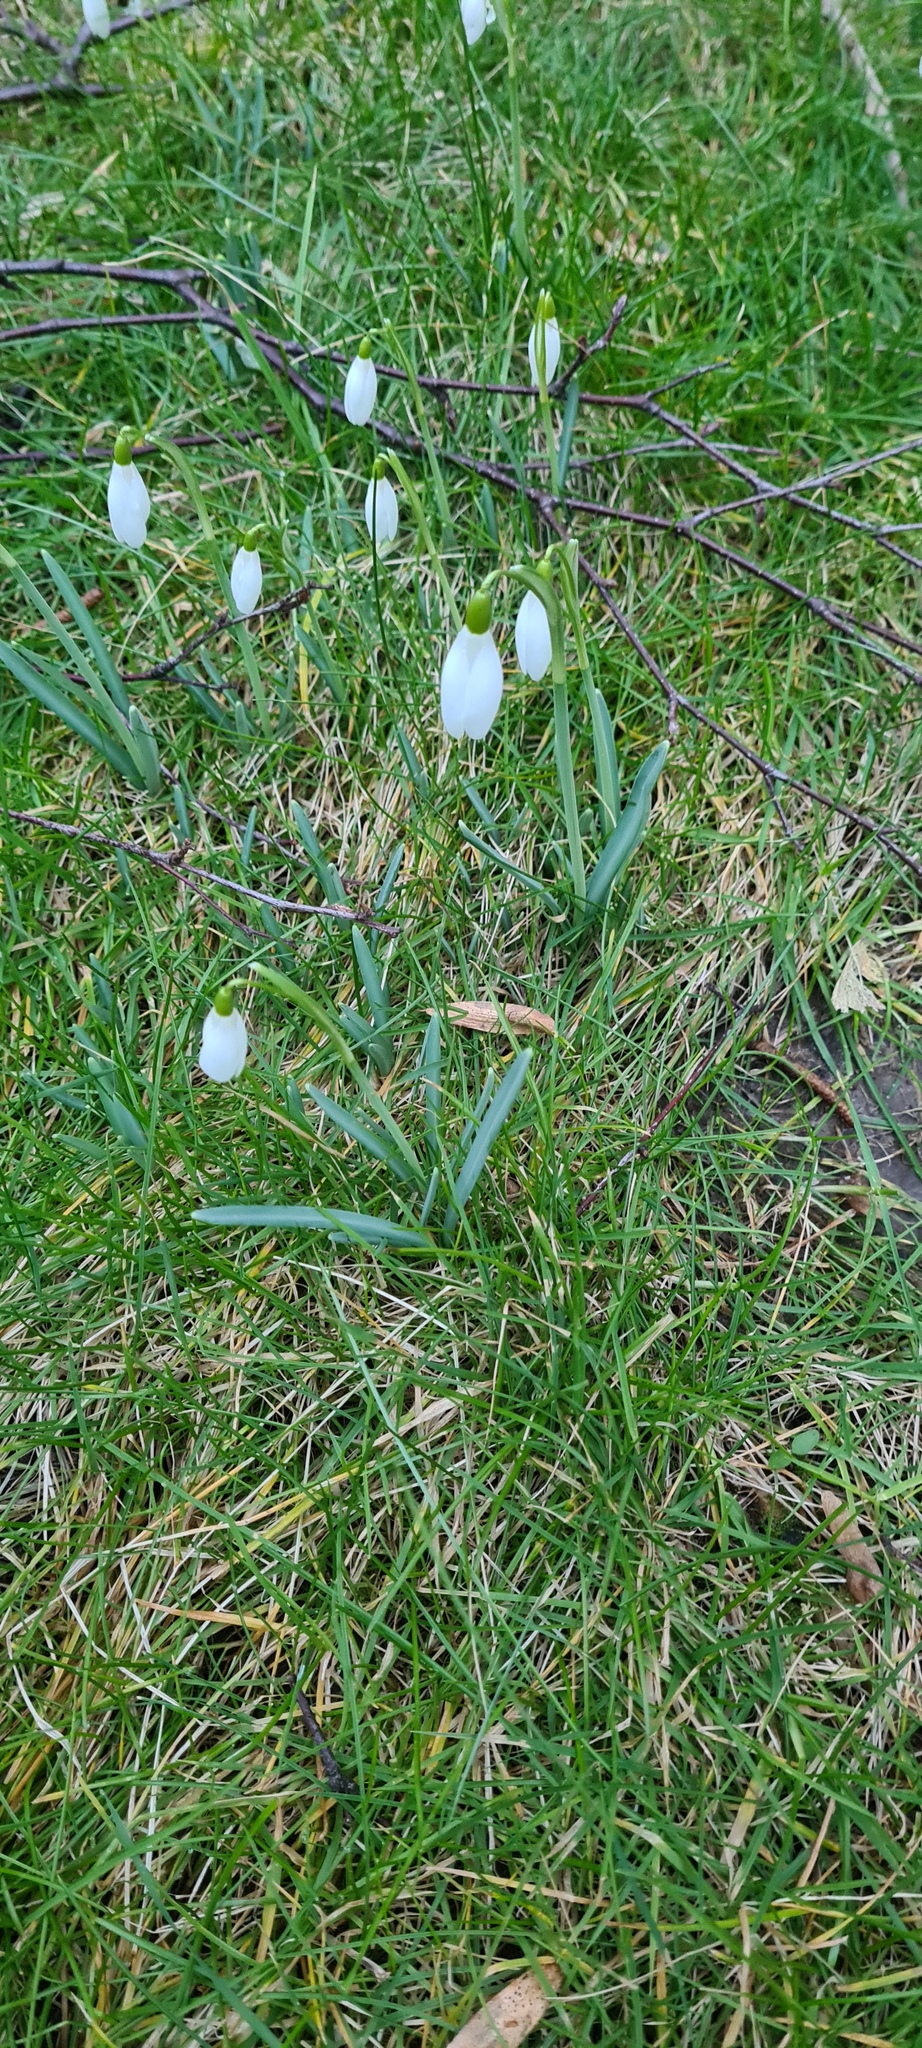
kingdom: Plantae
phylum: Tracheophyta
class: Liliopsida
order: Asparagales
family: Amaryllidaceae
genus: Galanthus
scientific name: Galanthus nivalis
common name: Snowdrop
